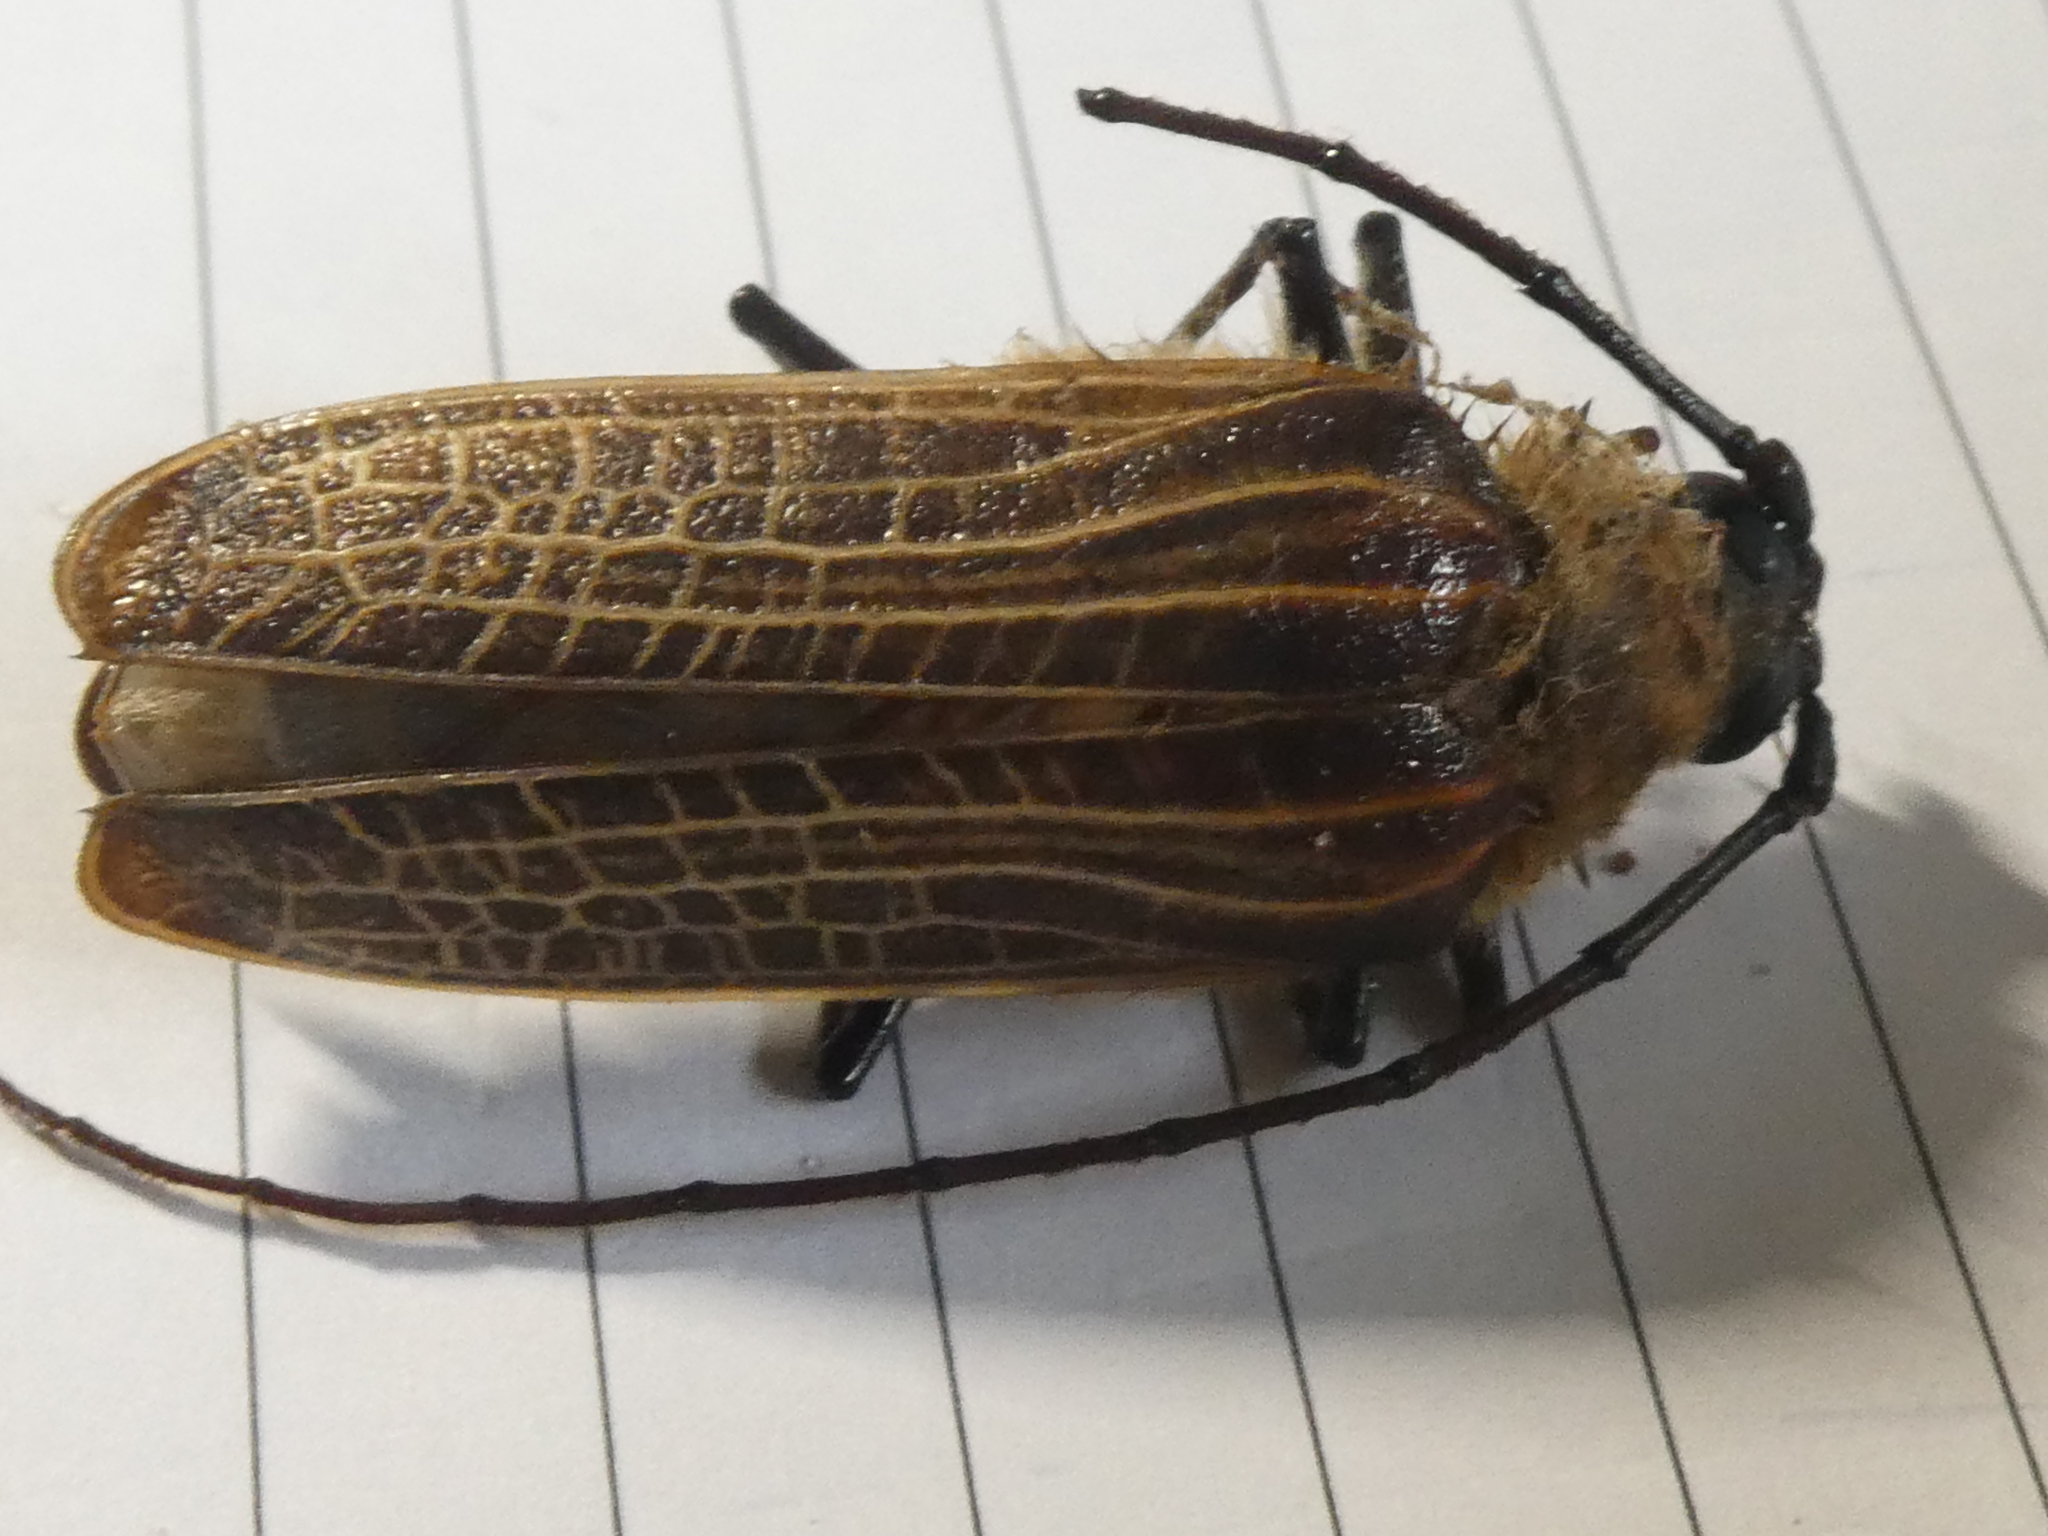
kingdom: Animalia
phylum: Arthropoda
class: Insecta
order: Coleoptera
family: Cerambycidae
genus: Prionoplus
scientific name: Prionoplus reticularis
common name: Huhu beetle
